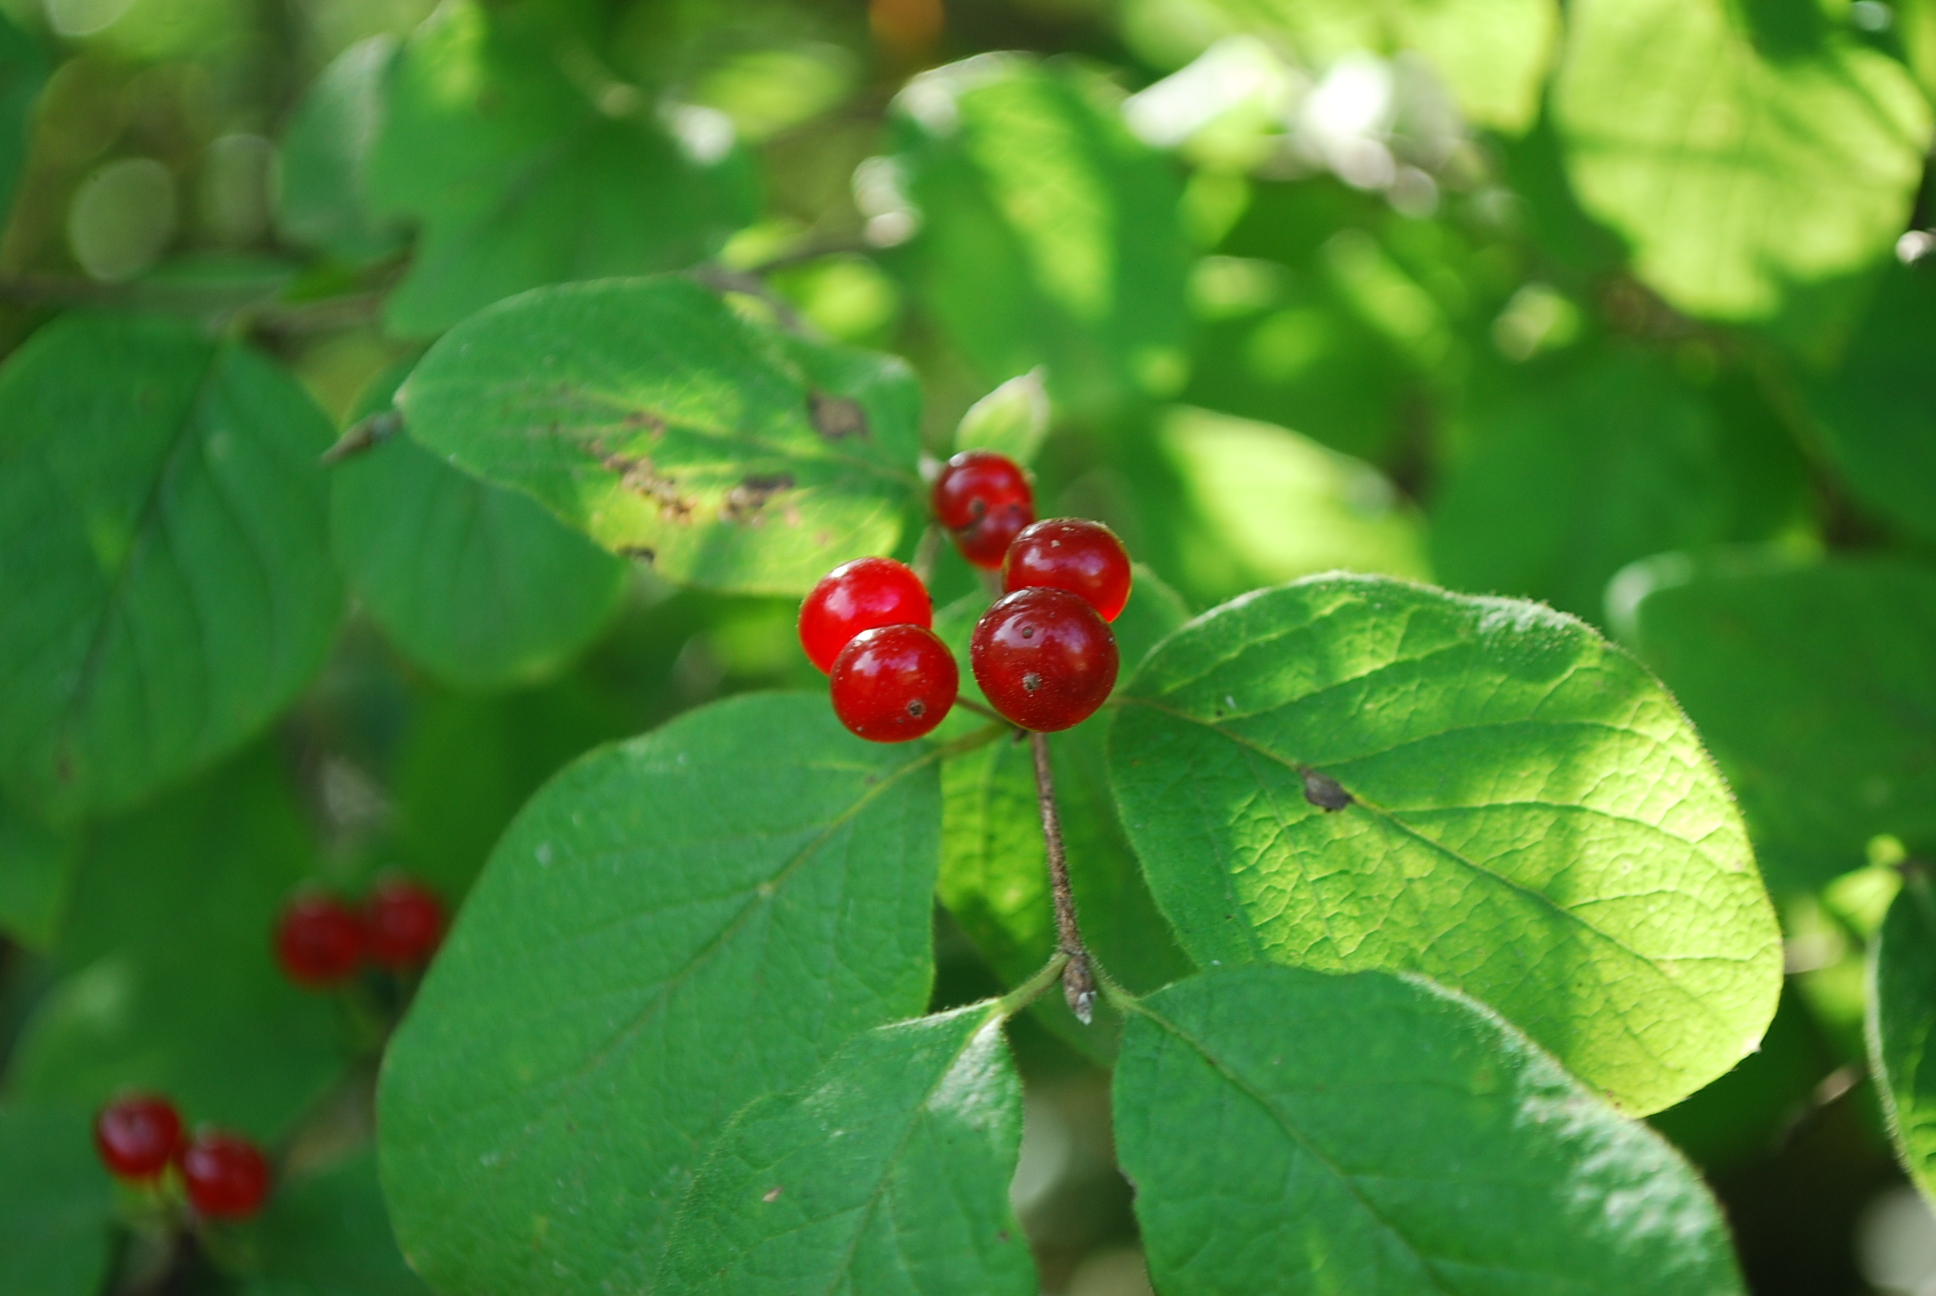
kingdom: Plantae
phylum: Tracheophyta
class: Magnoliopsida
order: Dipsacales
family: Caprifoliaceae
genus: Lonicera
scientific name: Lonicera xylosteum
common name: Fly honeysuckle
